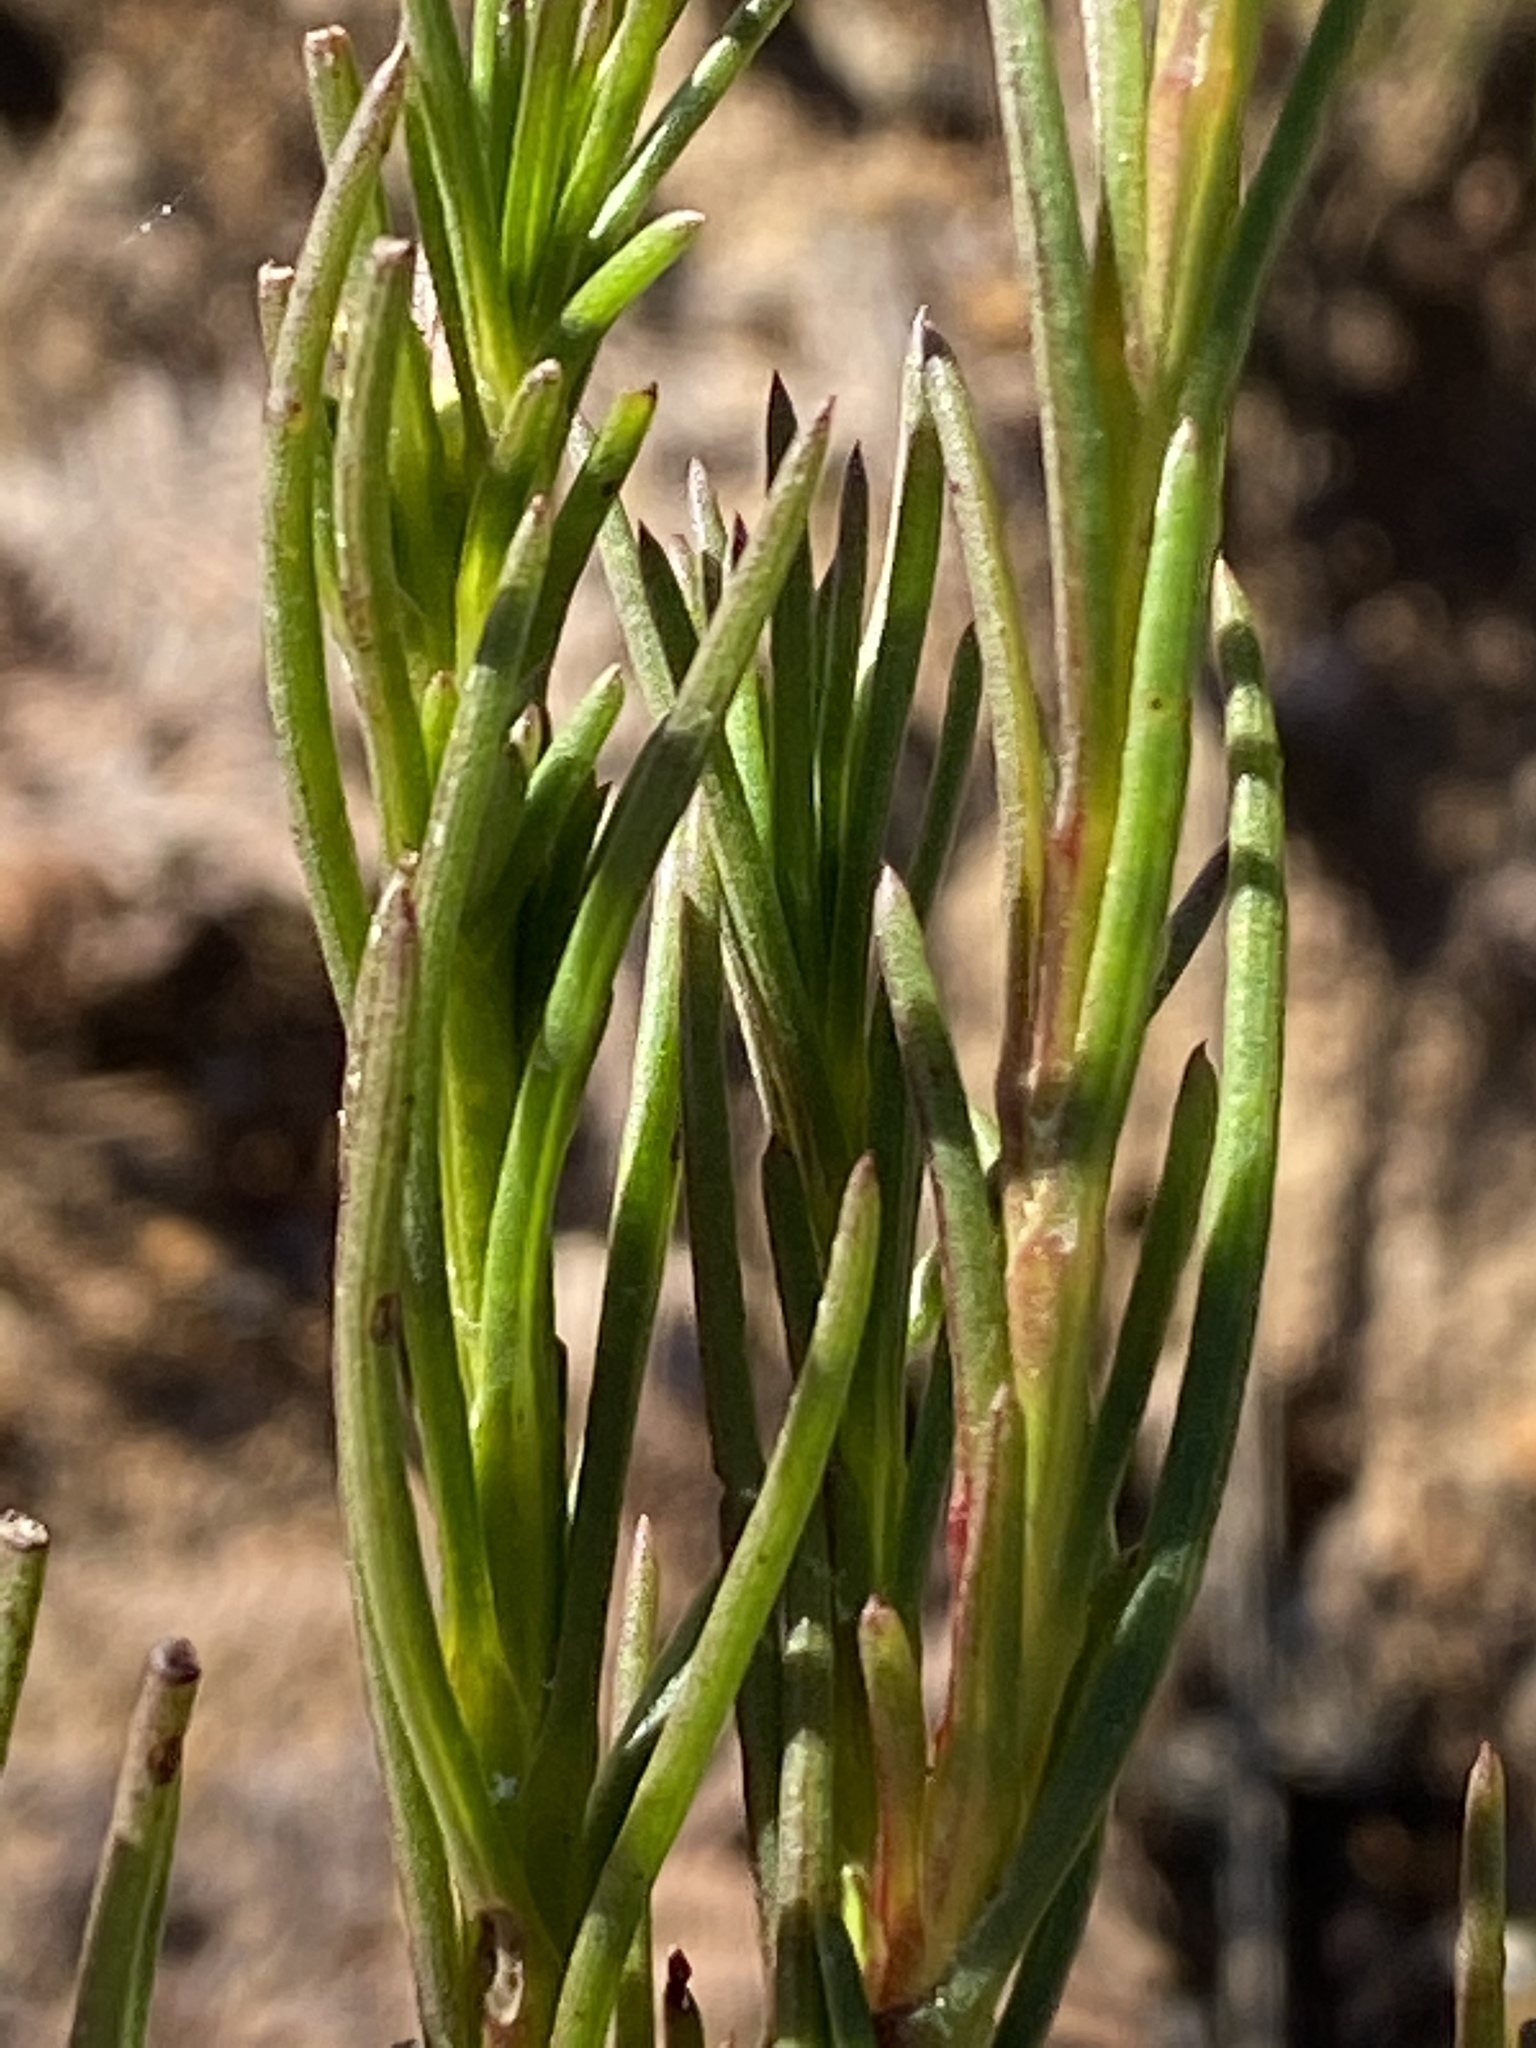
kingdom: Plantae
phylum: Tracheophyta
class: Magnoliopsida
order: Asterales
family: Asteraceae
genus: Athanasia
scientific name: Athanasia linifolia
